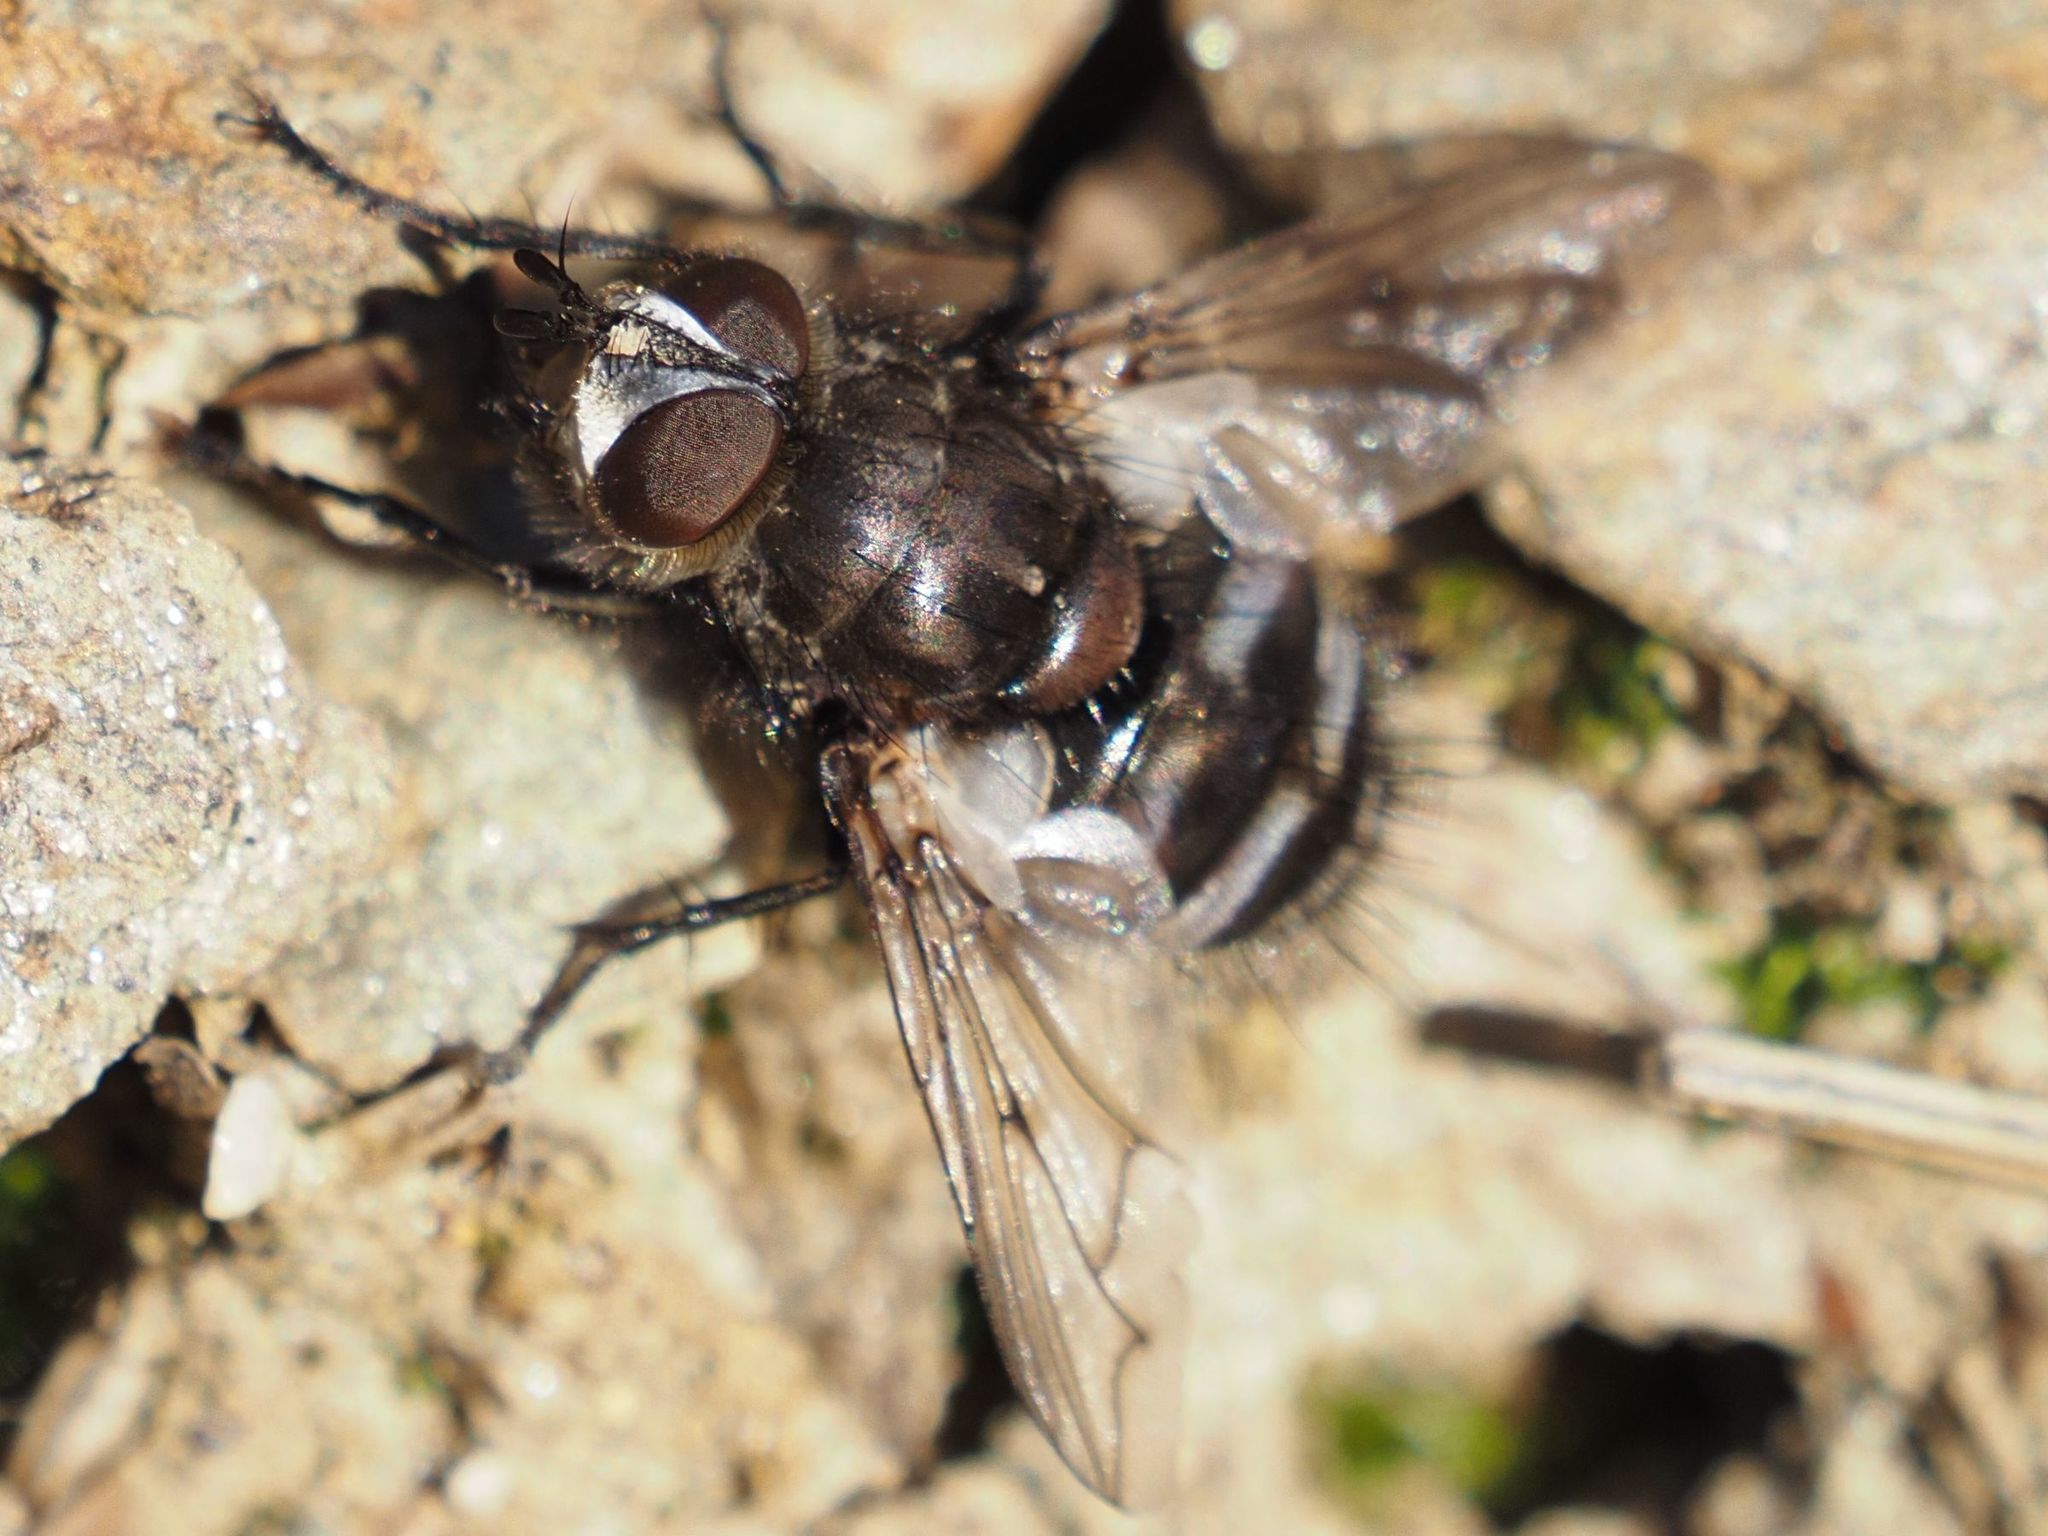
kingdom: Animalia
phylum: Arthropoda
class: Insecta
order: Diptera
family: Tachinidae
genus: Panzeria
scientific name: Panzeria puparum
